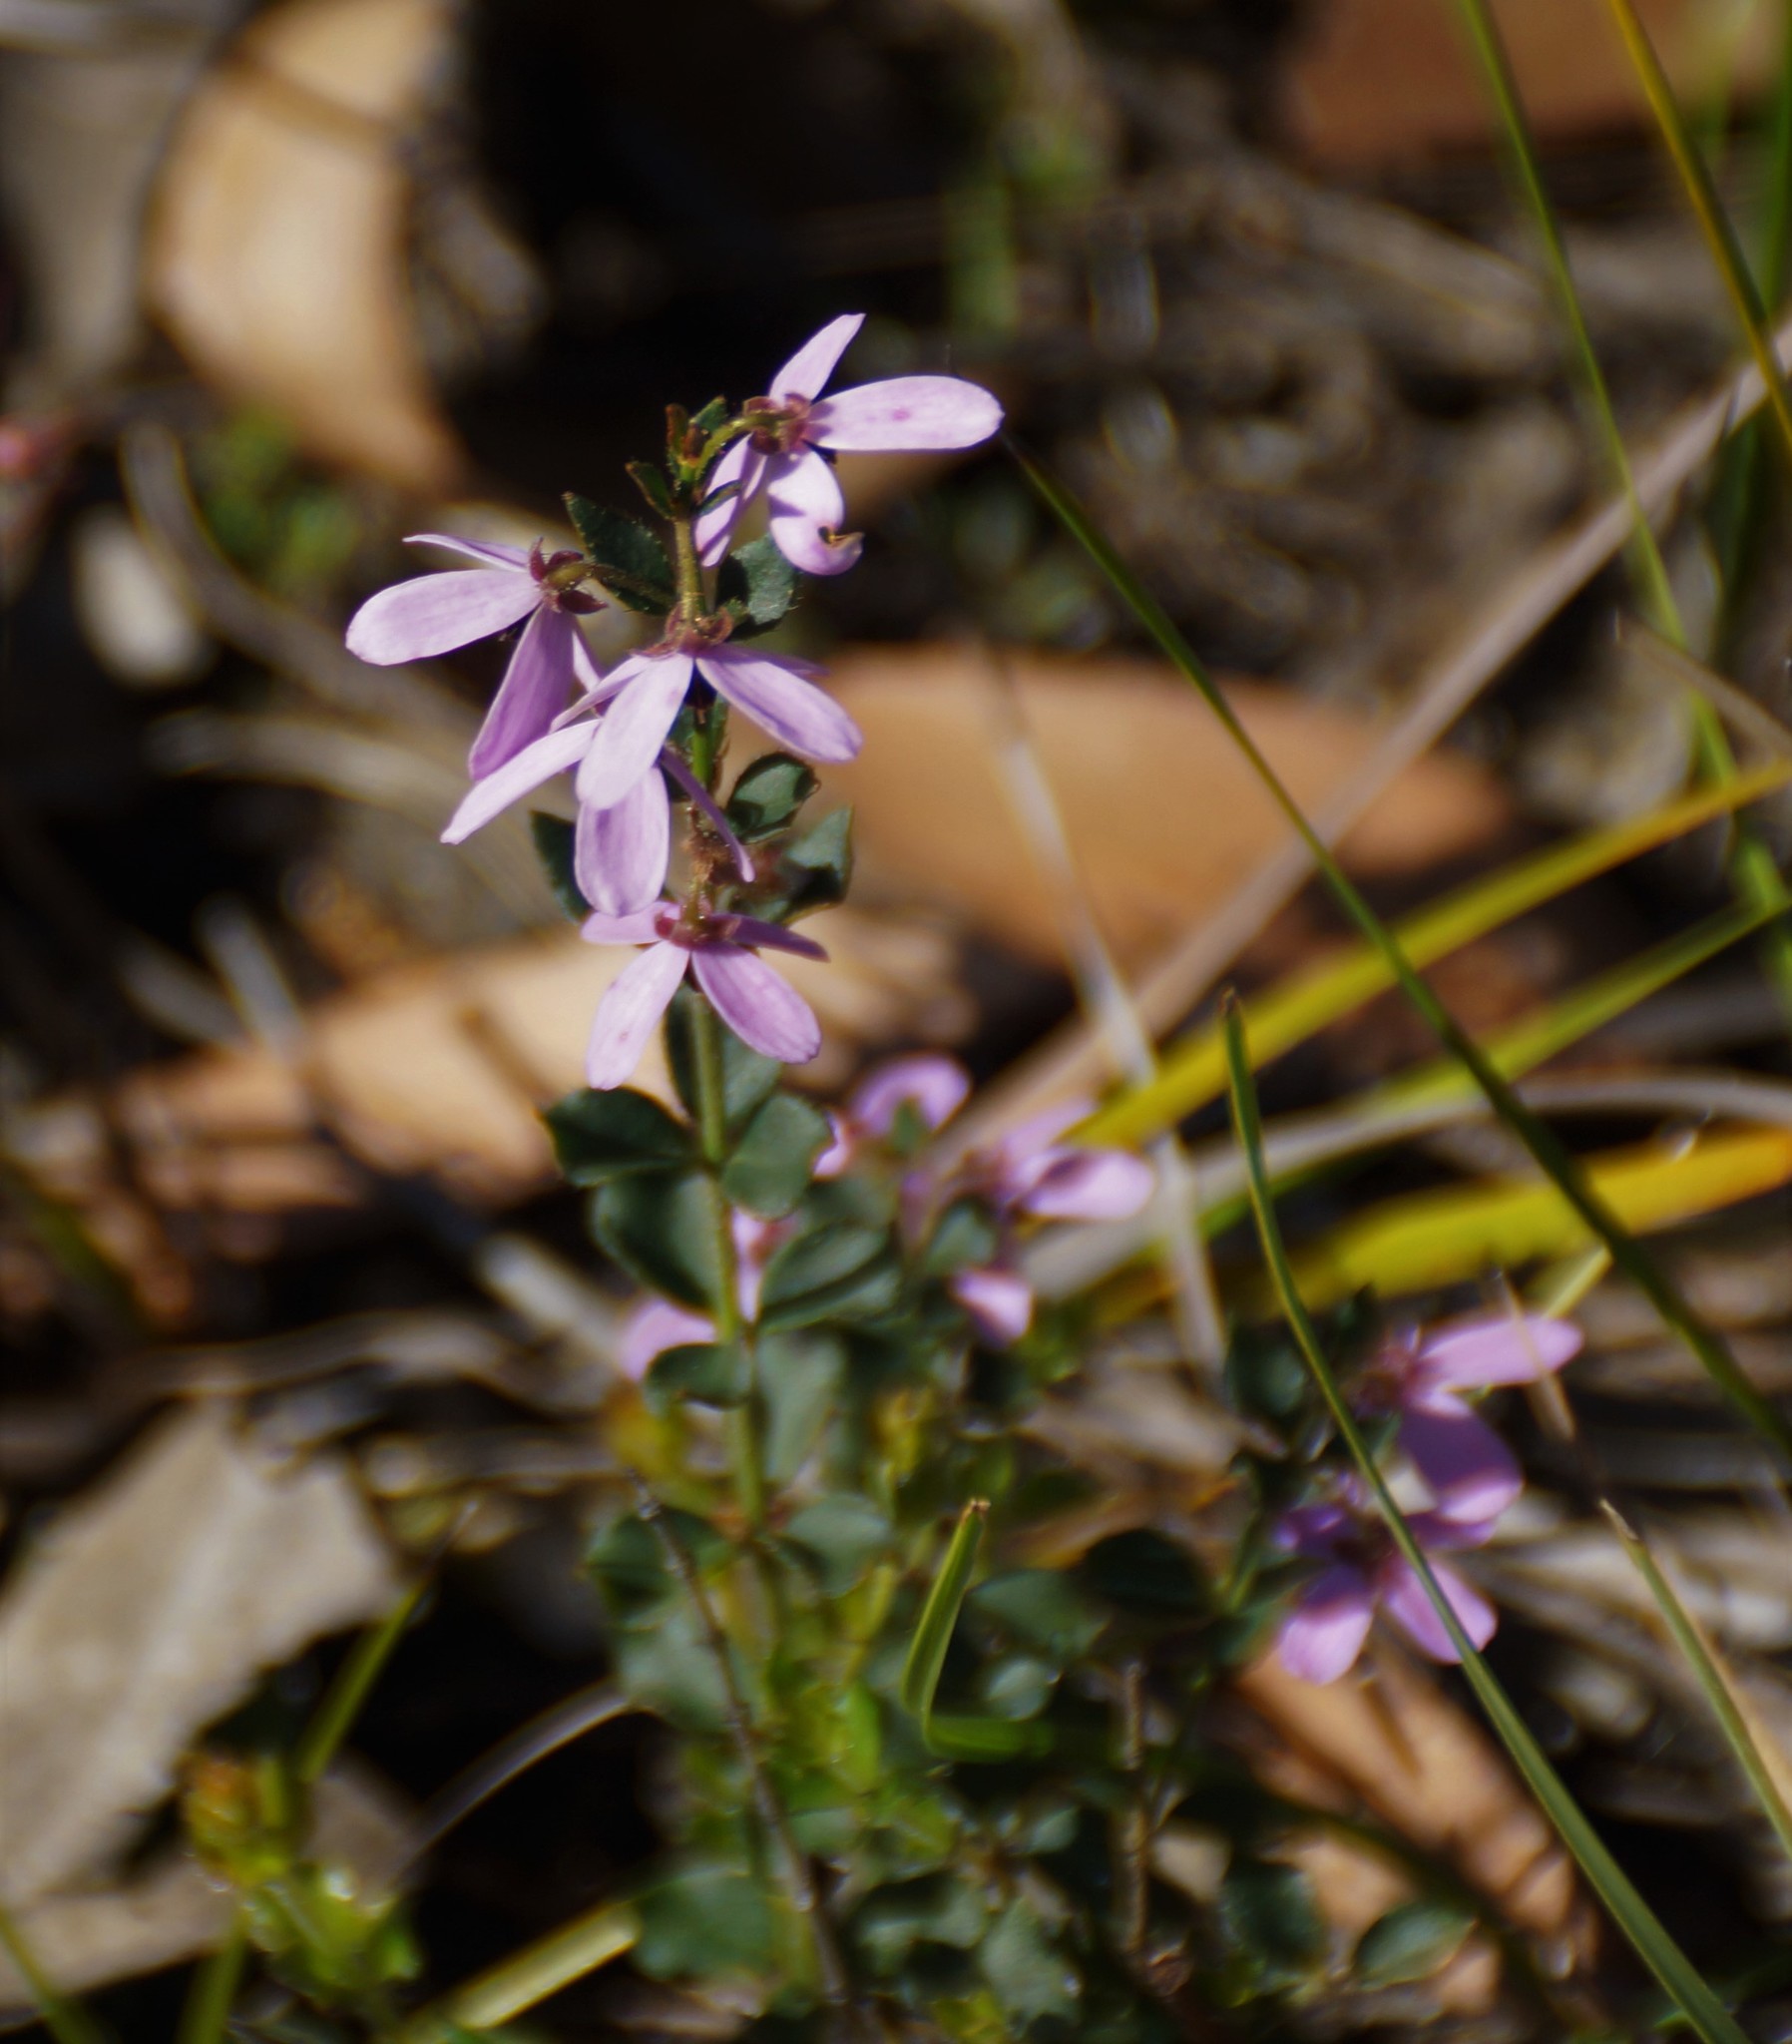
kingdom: Plantae
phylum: Tracheophyta
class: Magnoliopsida
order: Oxalidales
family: Elaeocarpaceae
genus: Tetratheca
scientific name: Tetratheca ciliata
